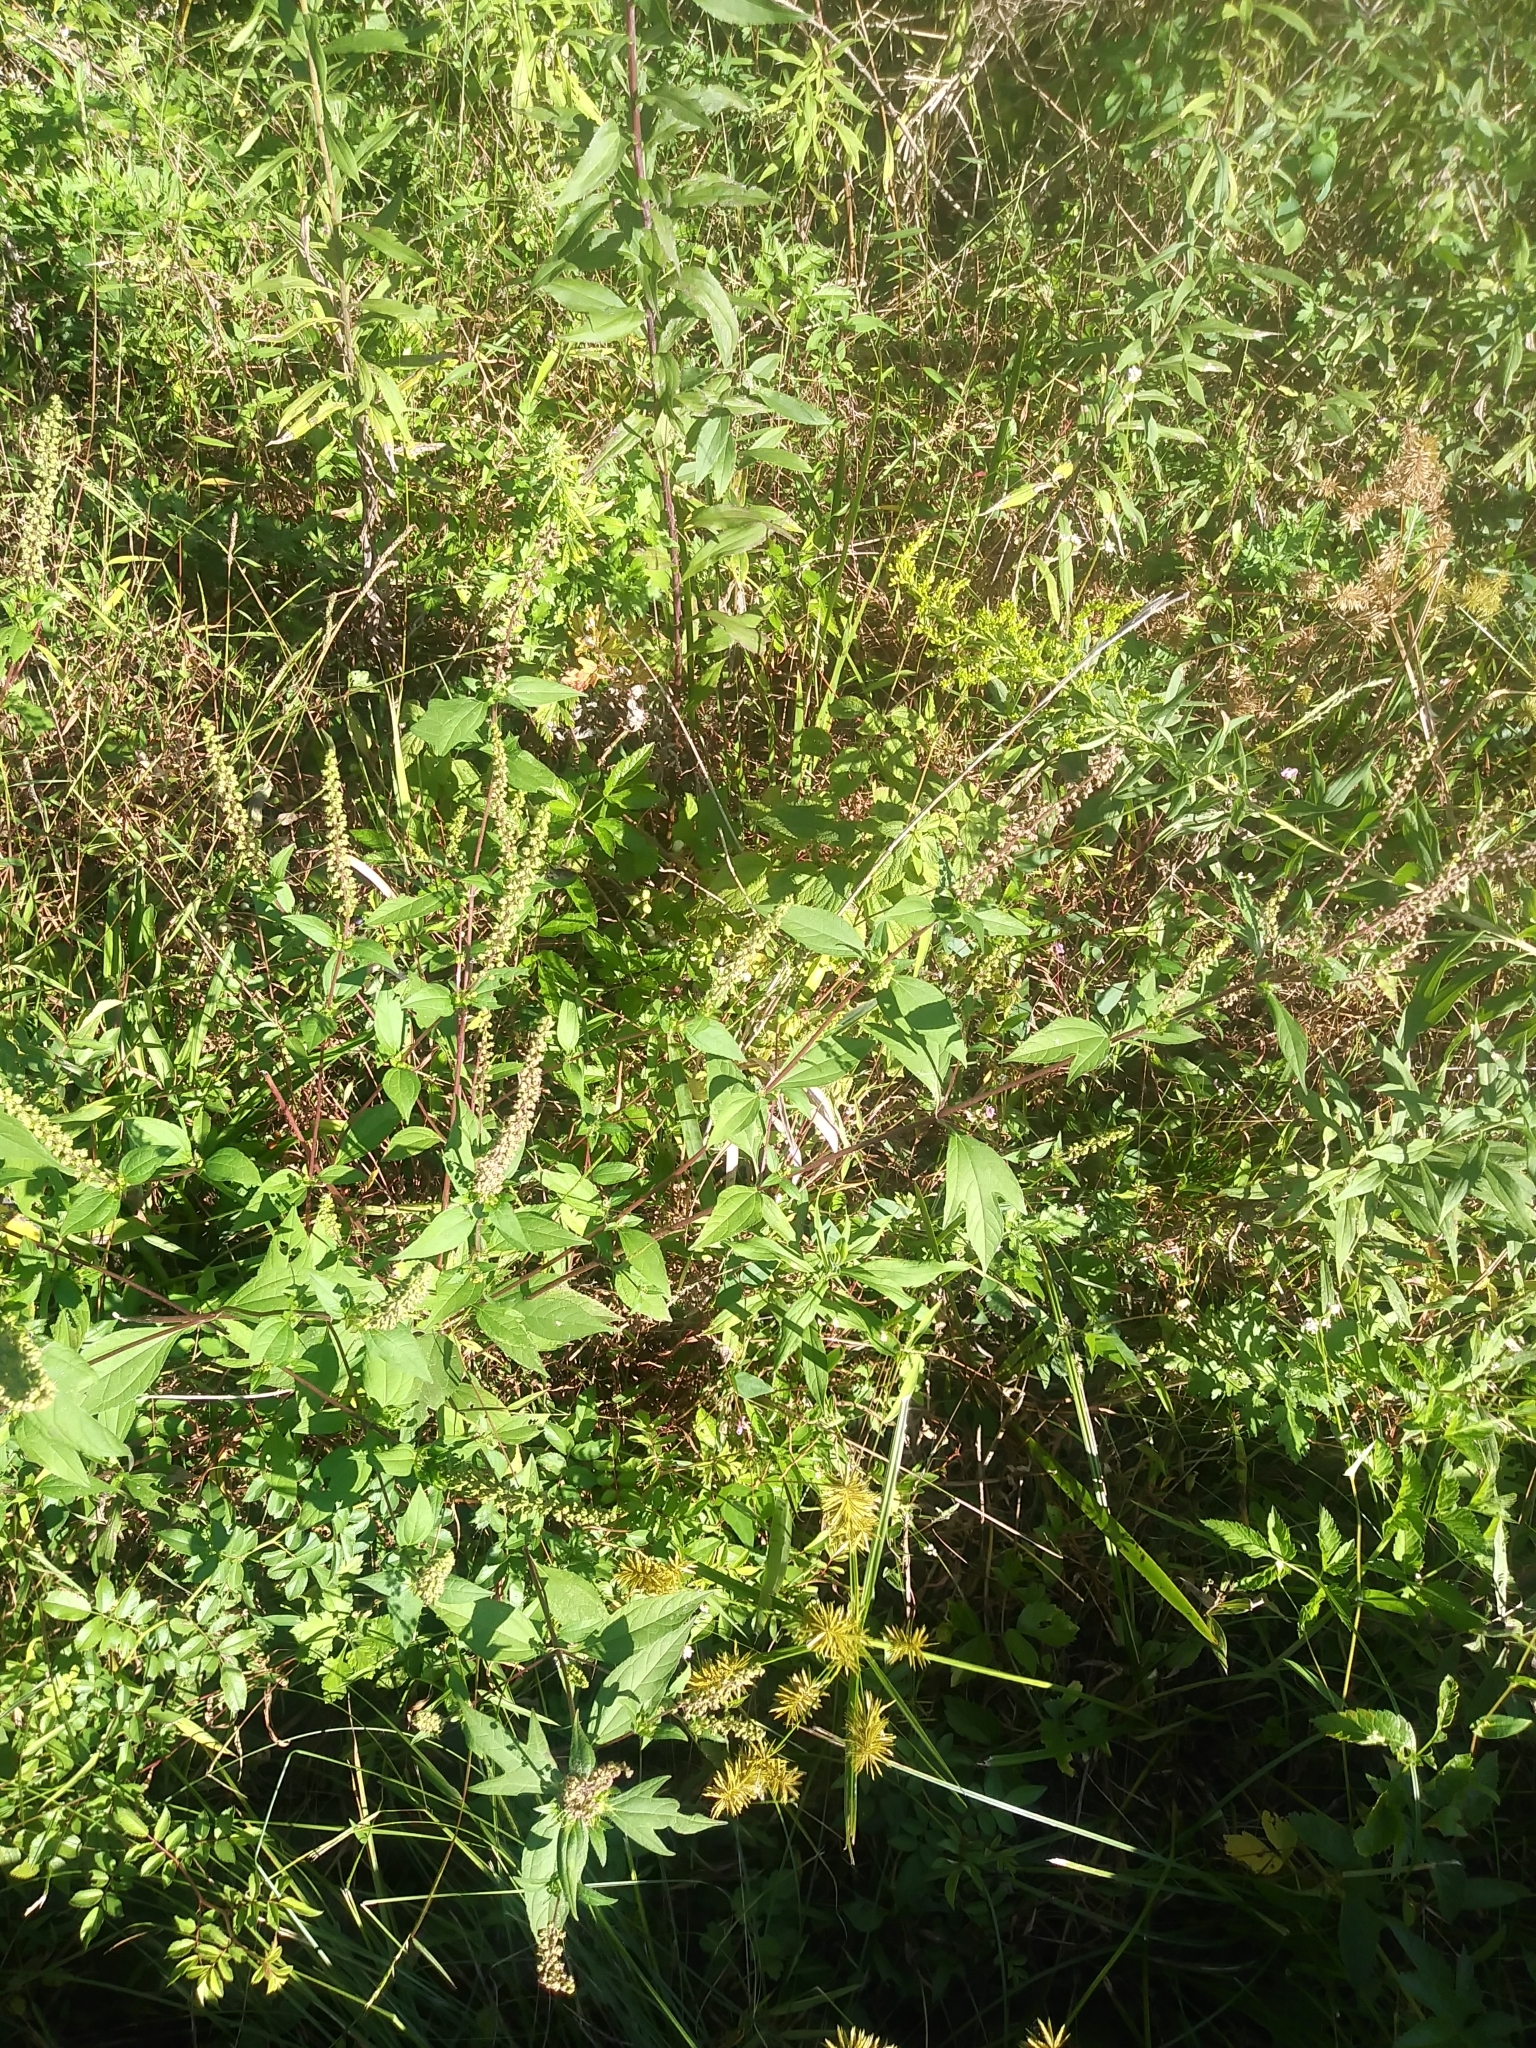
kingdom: Plantae
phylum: Tracheophyta
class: Magnoliopsida
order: Asterales
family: Asteraceae
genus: Ambrosia
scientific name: Ambrosia trifida
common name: Giant ragweed
